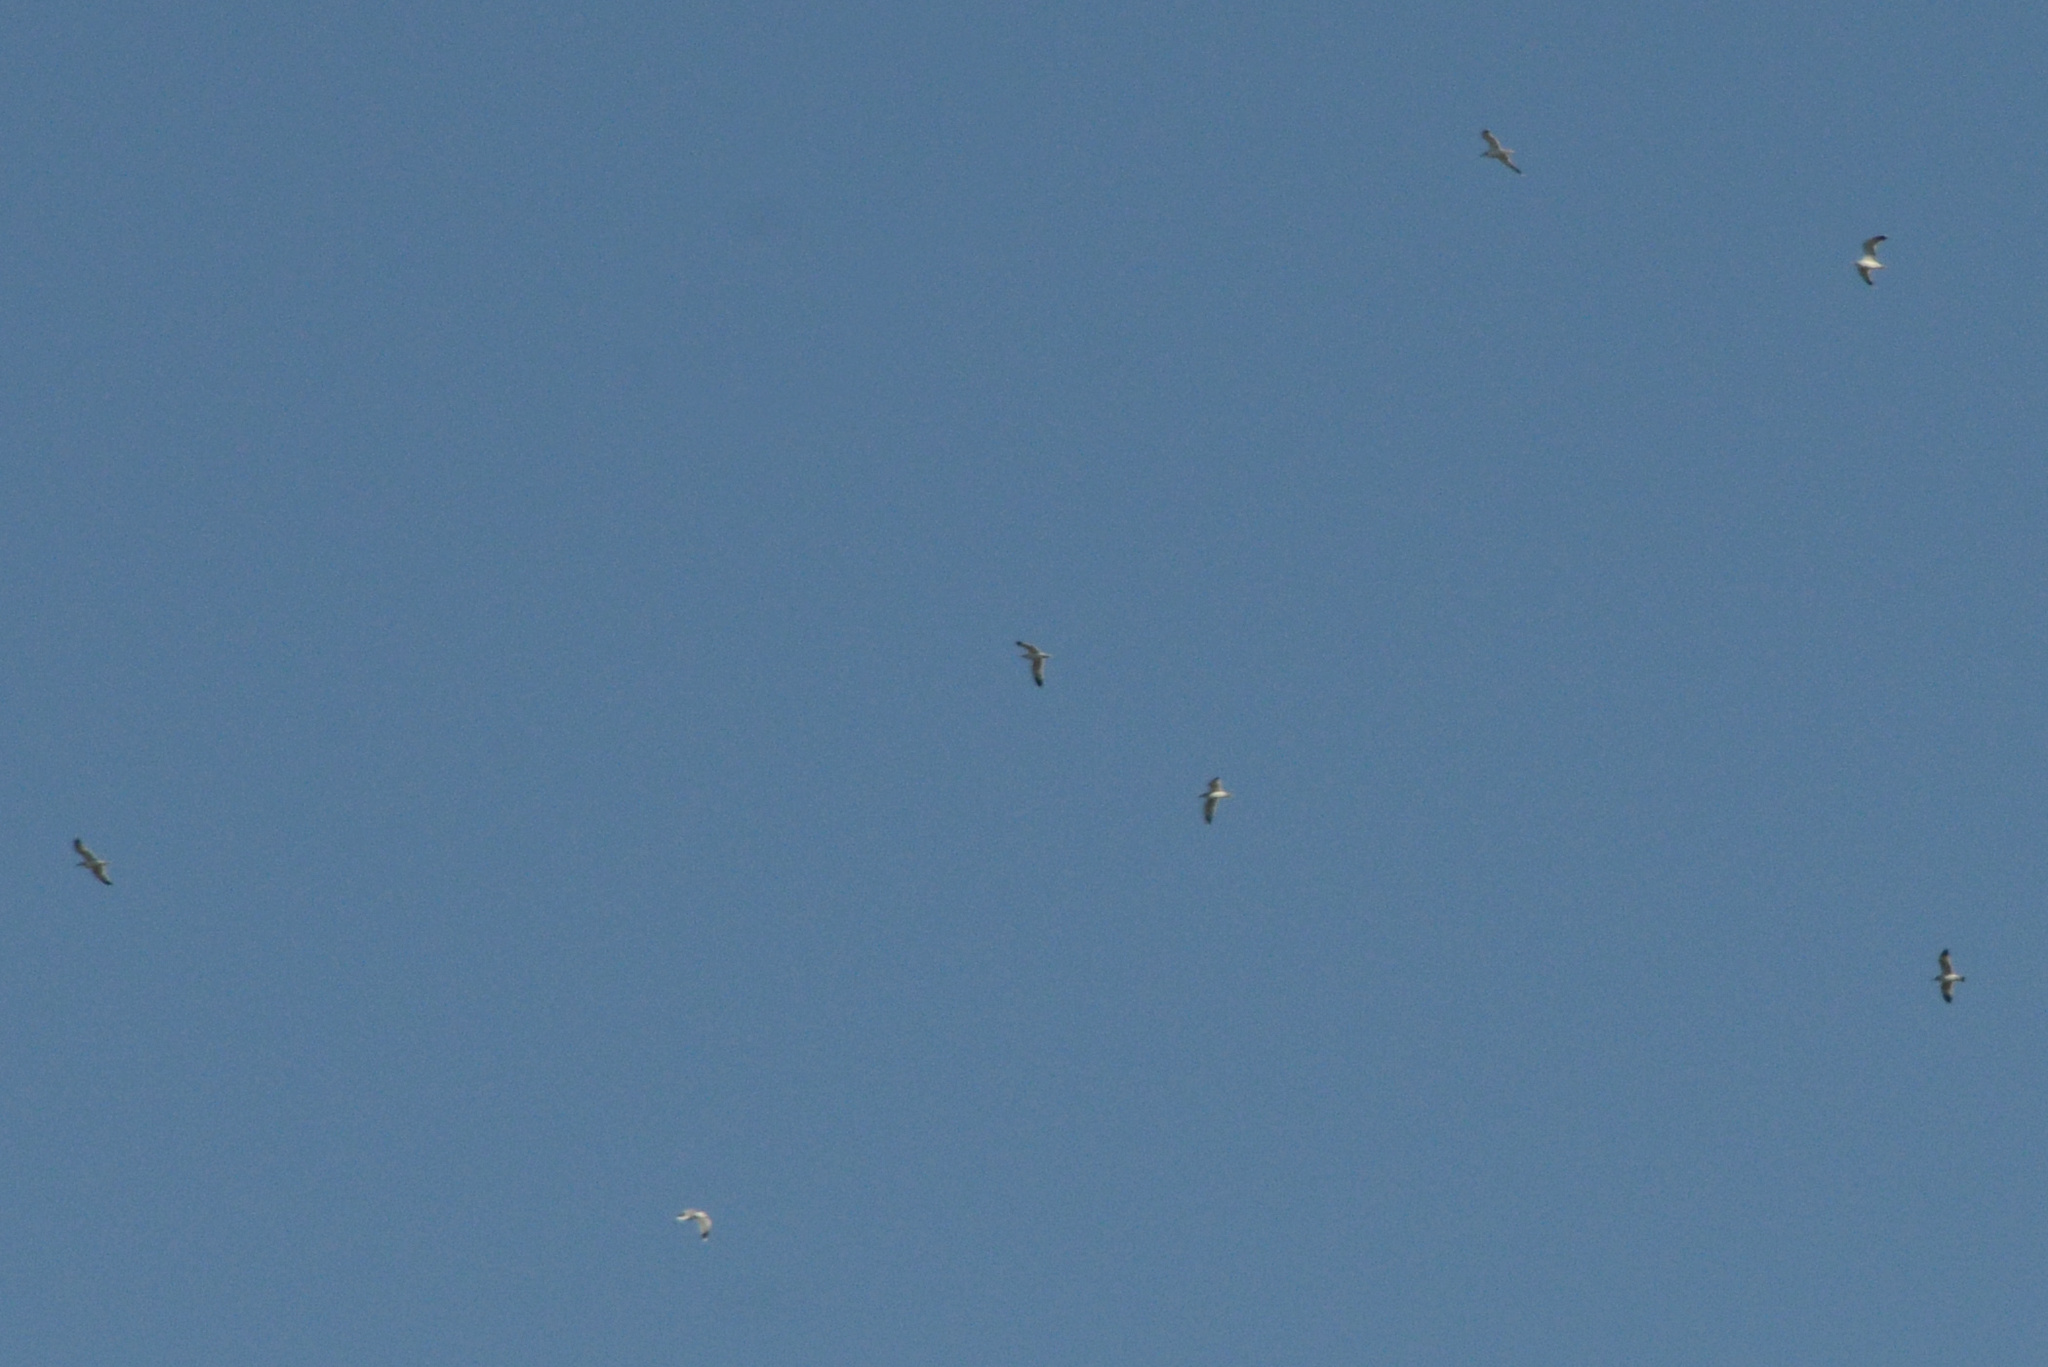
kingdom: Animalia
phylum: Chordata
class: Aves
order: Charadriiformes
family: Laridae
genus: Larus
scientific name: Larus
